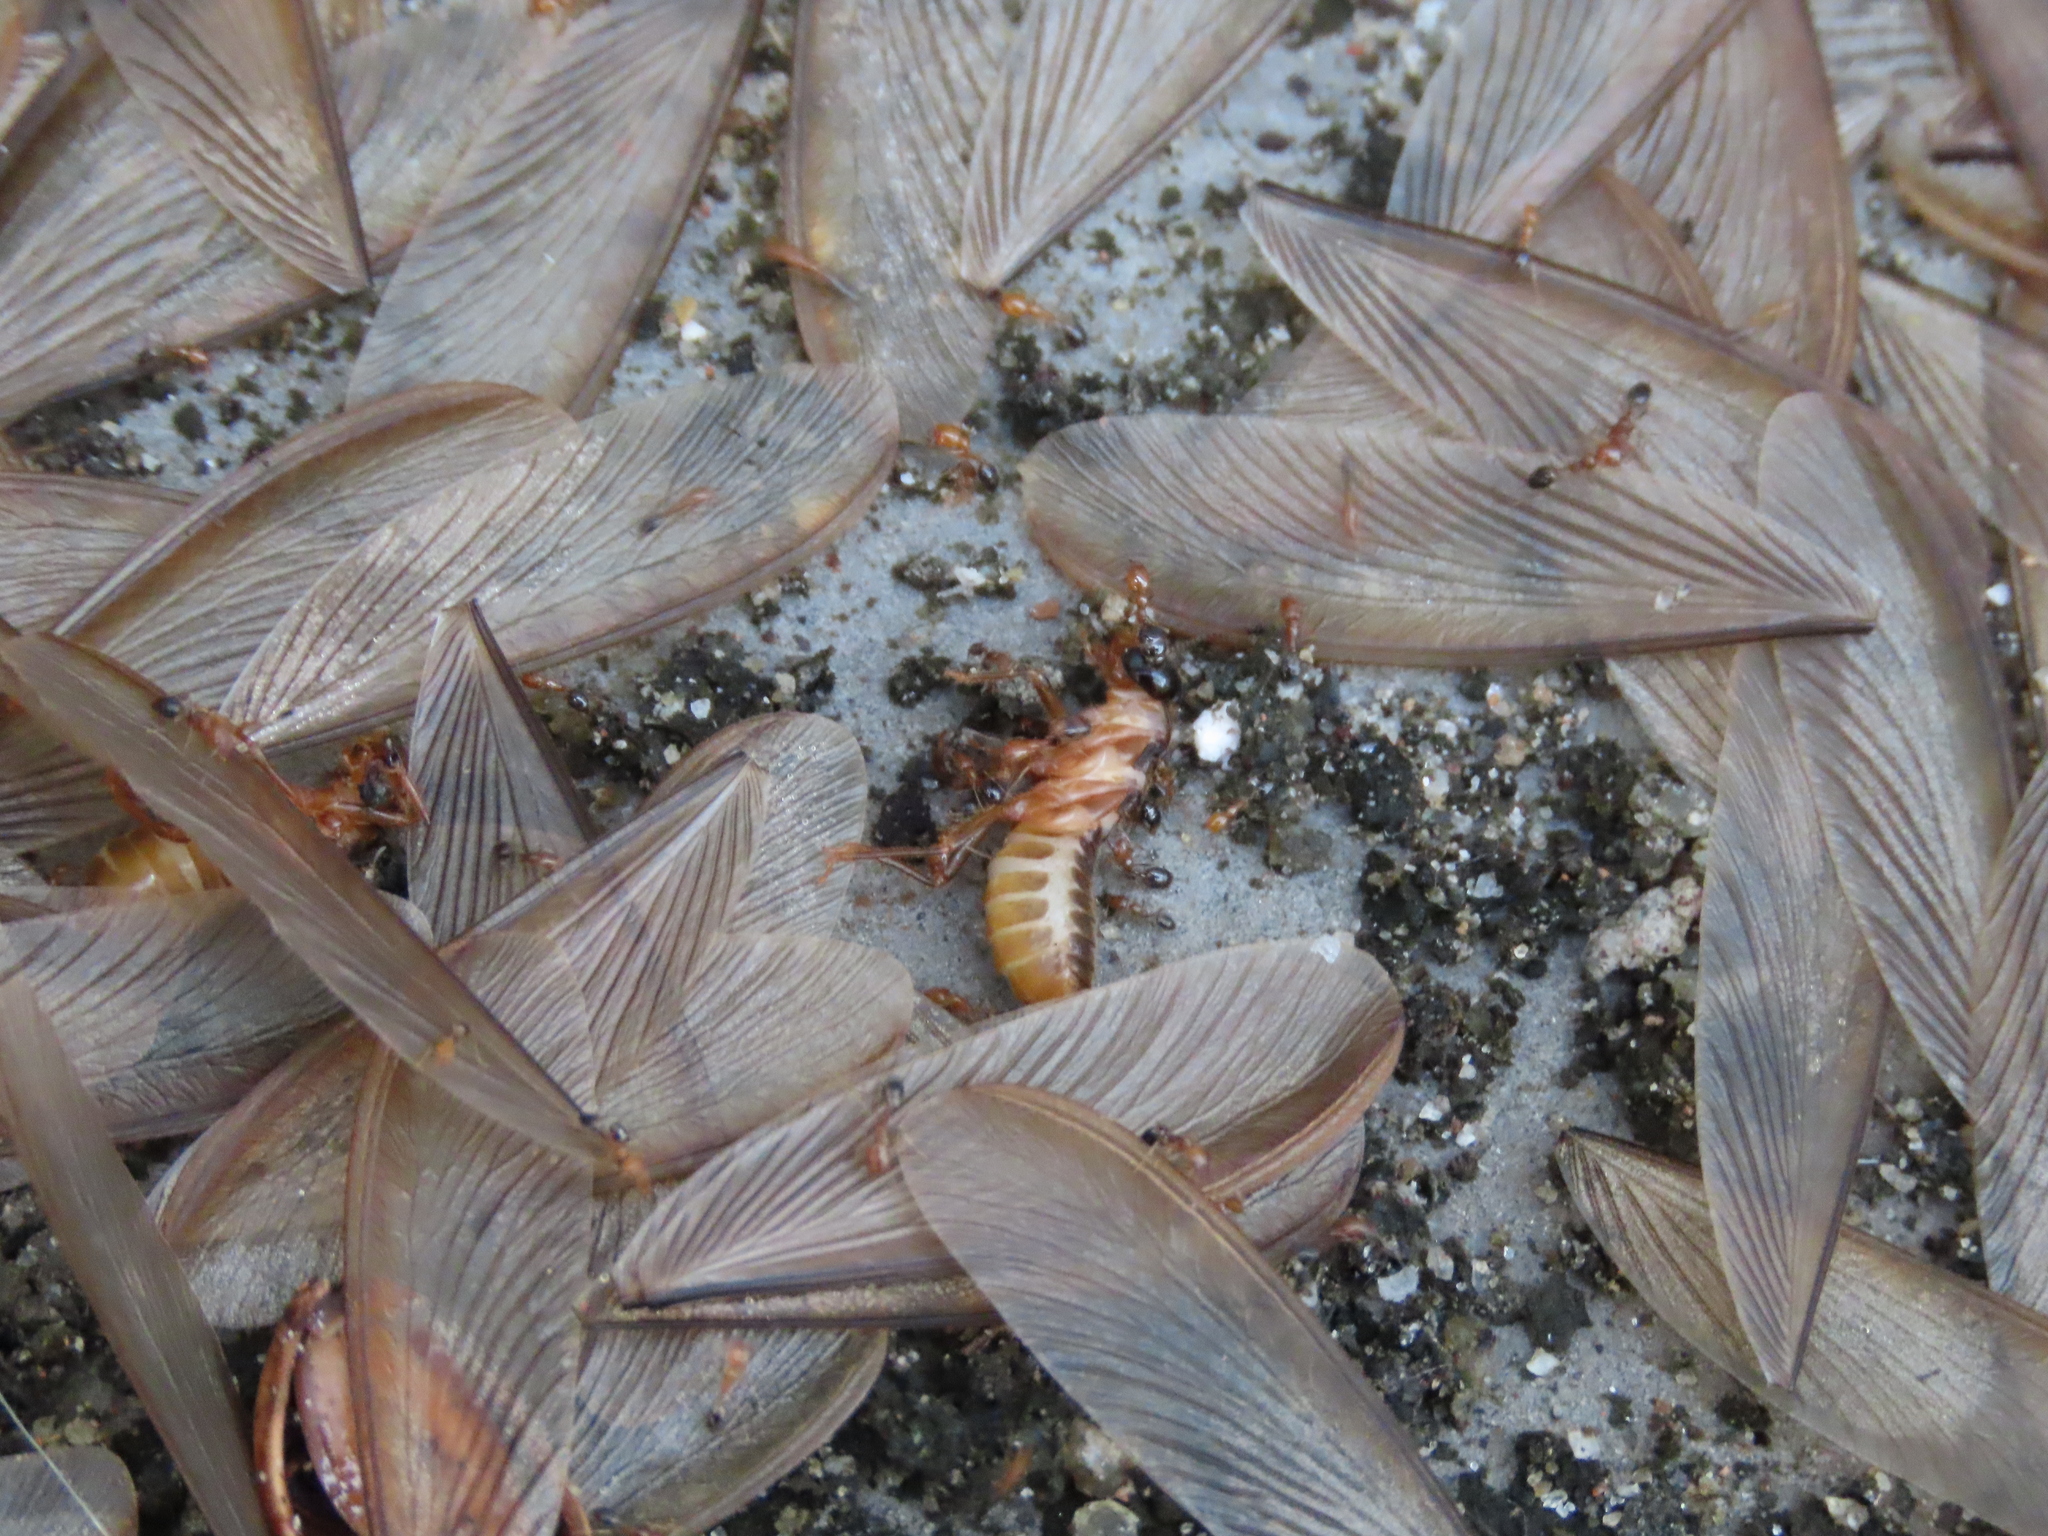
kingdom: Animalia
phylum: Arthropoda
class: Insecta
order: Hymenoptera
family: Formicidae
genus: Monomorium
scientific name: Monomorium destructor
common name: Destructive trailing ant
